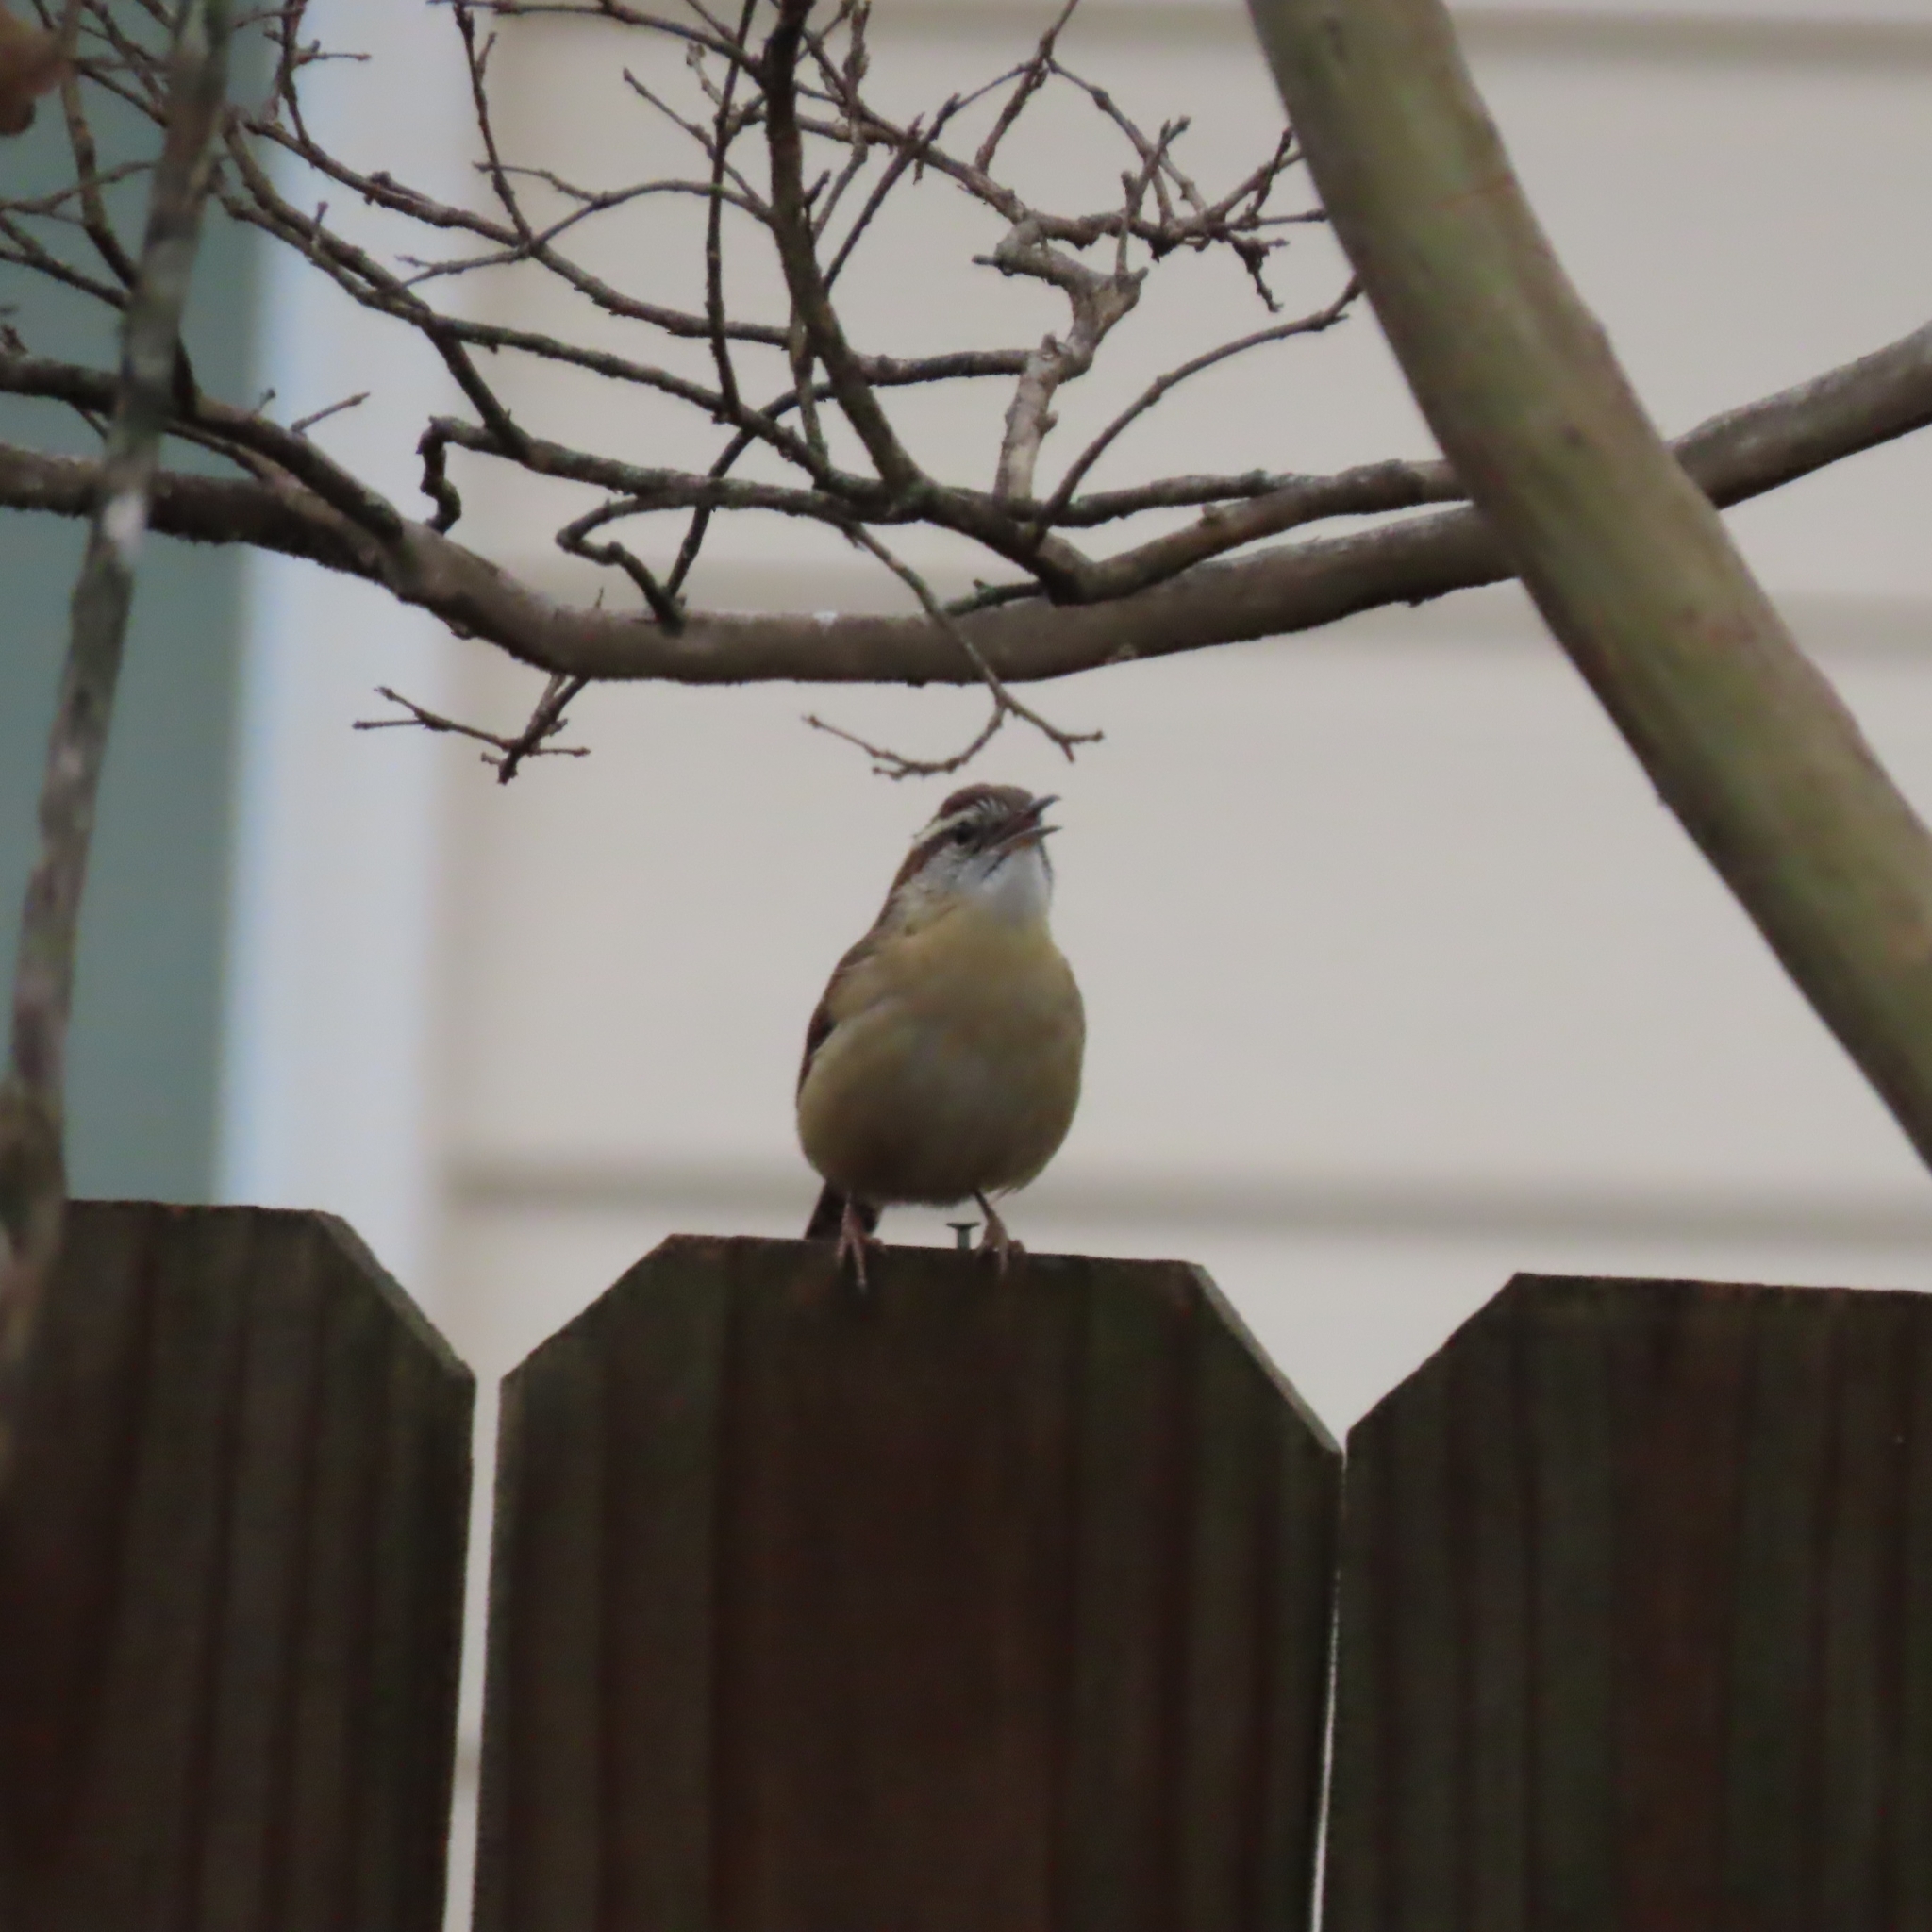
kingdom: Animalia
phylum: Chordata
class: Aves
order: Passeriformes
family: Troglodytidae
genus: Thryothorus
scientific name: Thryothorus ludovicianus
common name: Carolina wren
